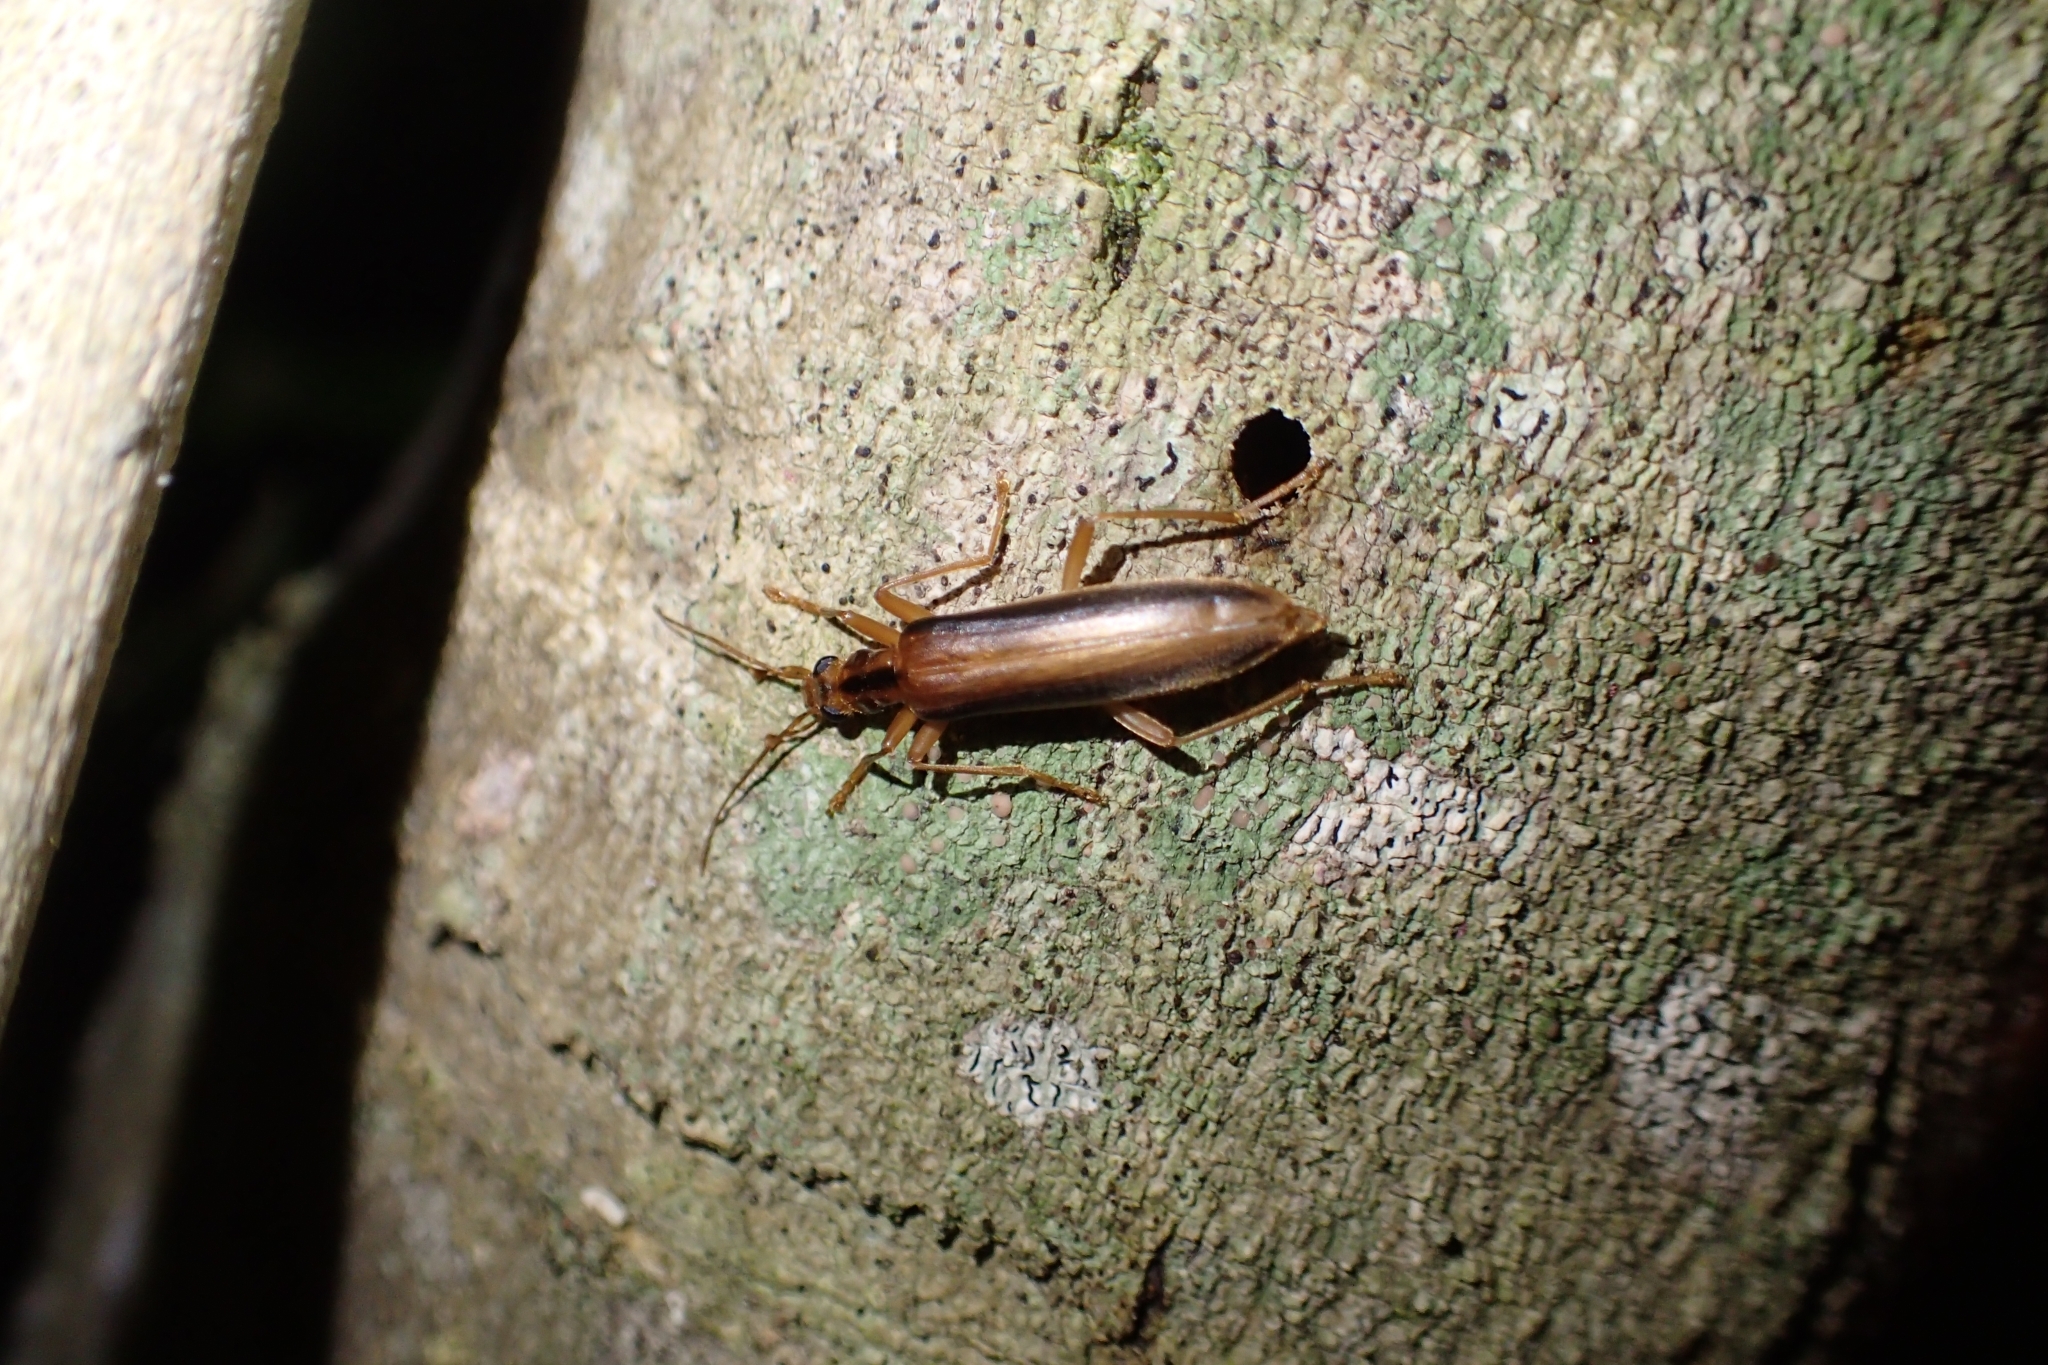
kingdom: Animalia
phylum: Arthropoda
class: Insecta
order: Coleoptera
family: Oedemeridae
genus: Thelyphassa
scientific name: Thelyphassa
